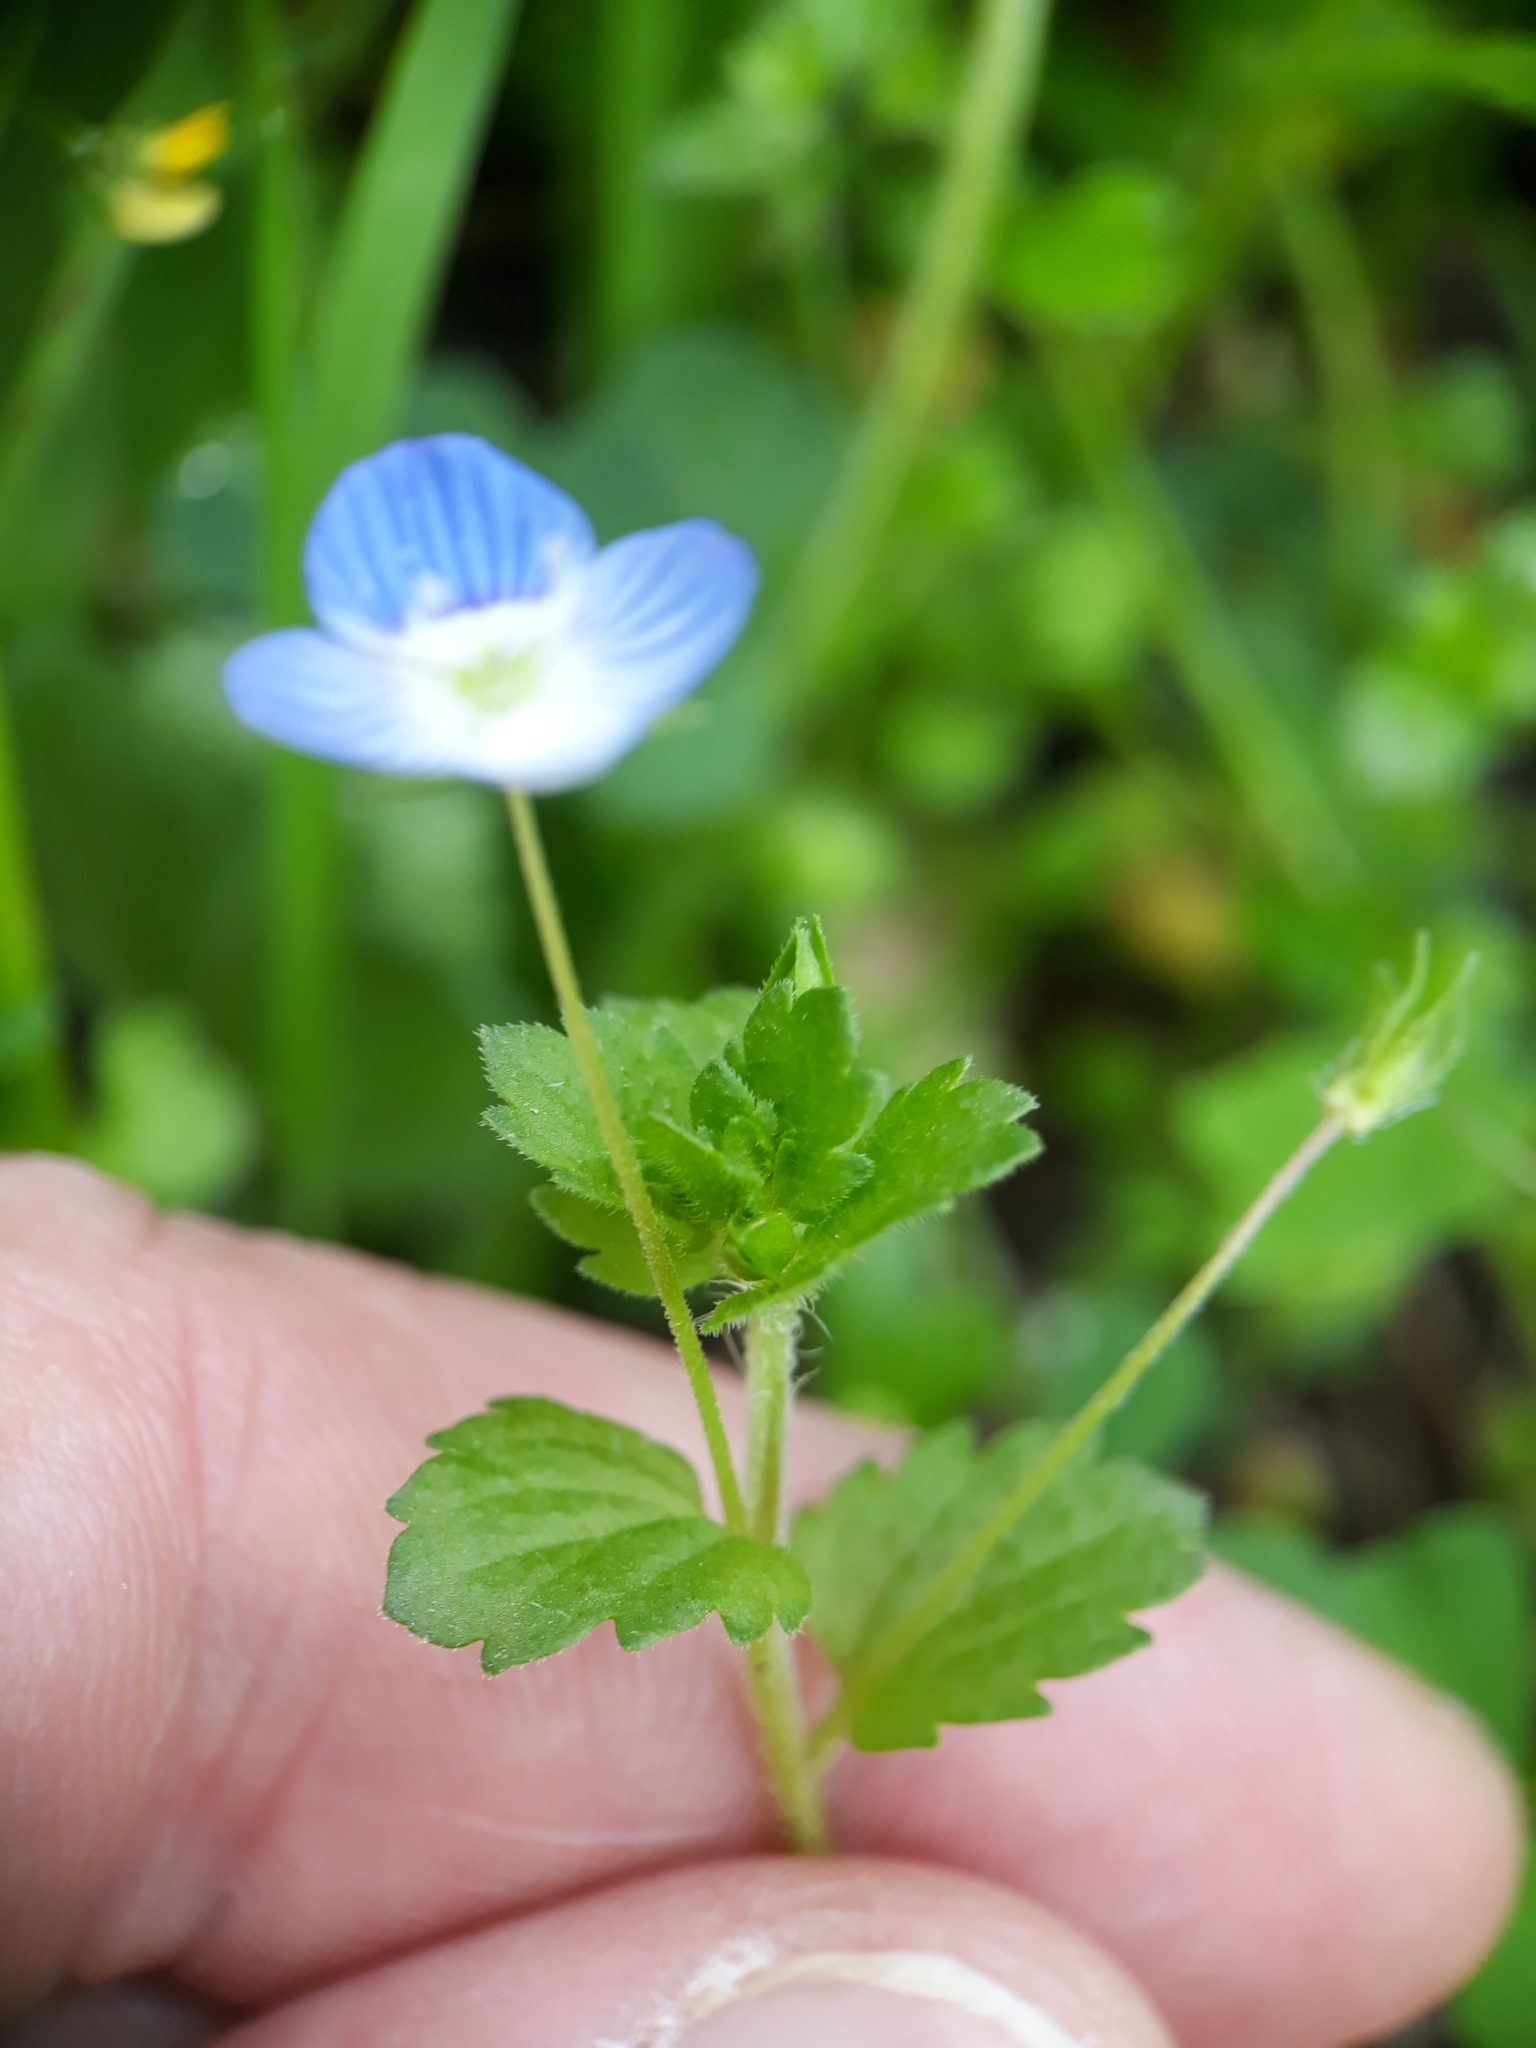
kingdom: Plantae
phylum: Tracheophyta
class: Magnoliopsida
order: Lamiales
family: Plantaginaceae
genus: Veronica
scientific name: Veronica persica
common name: Common field-speedwell
